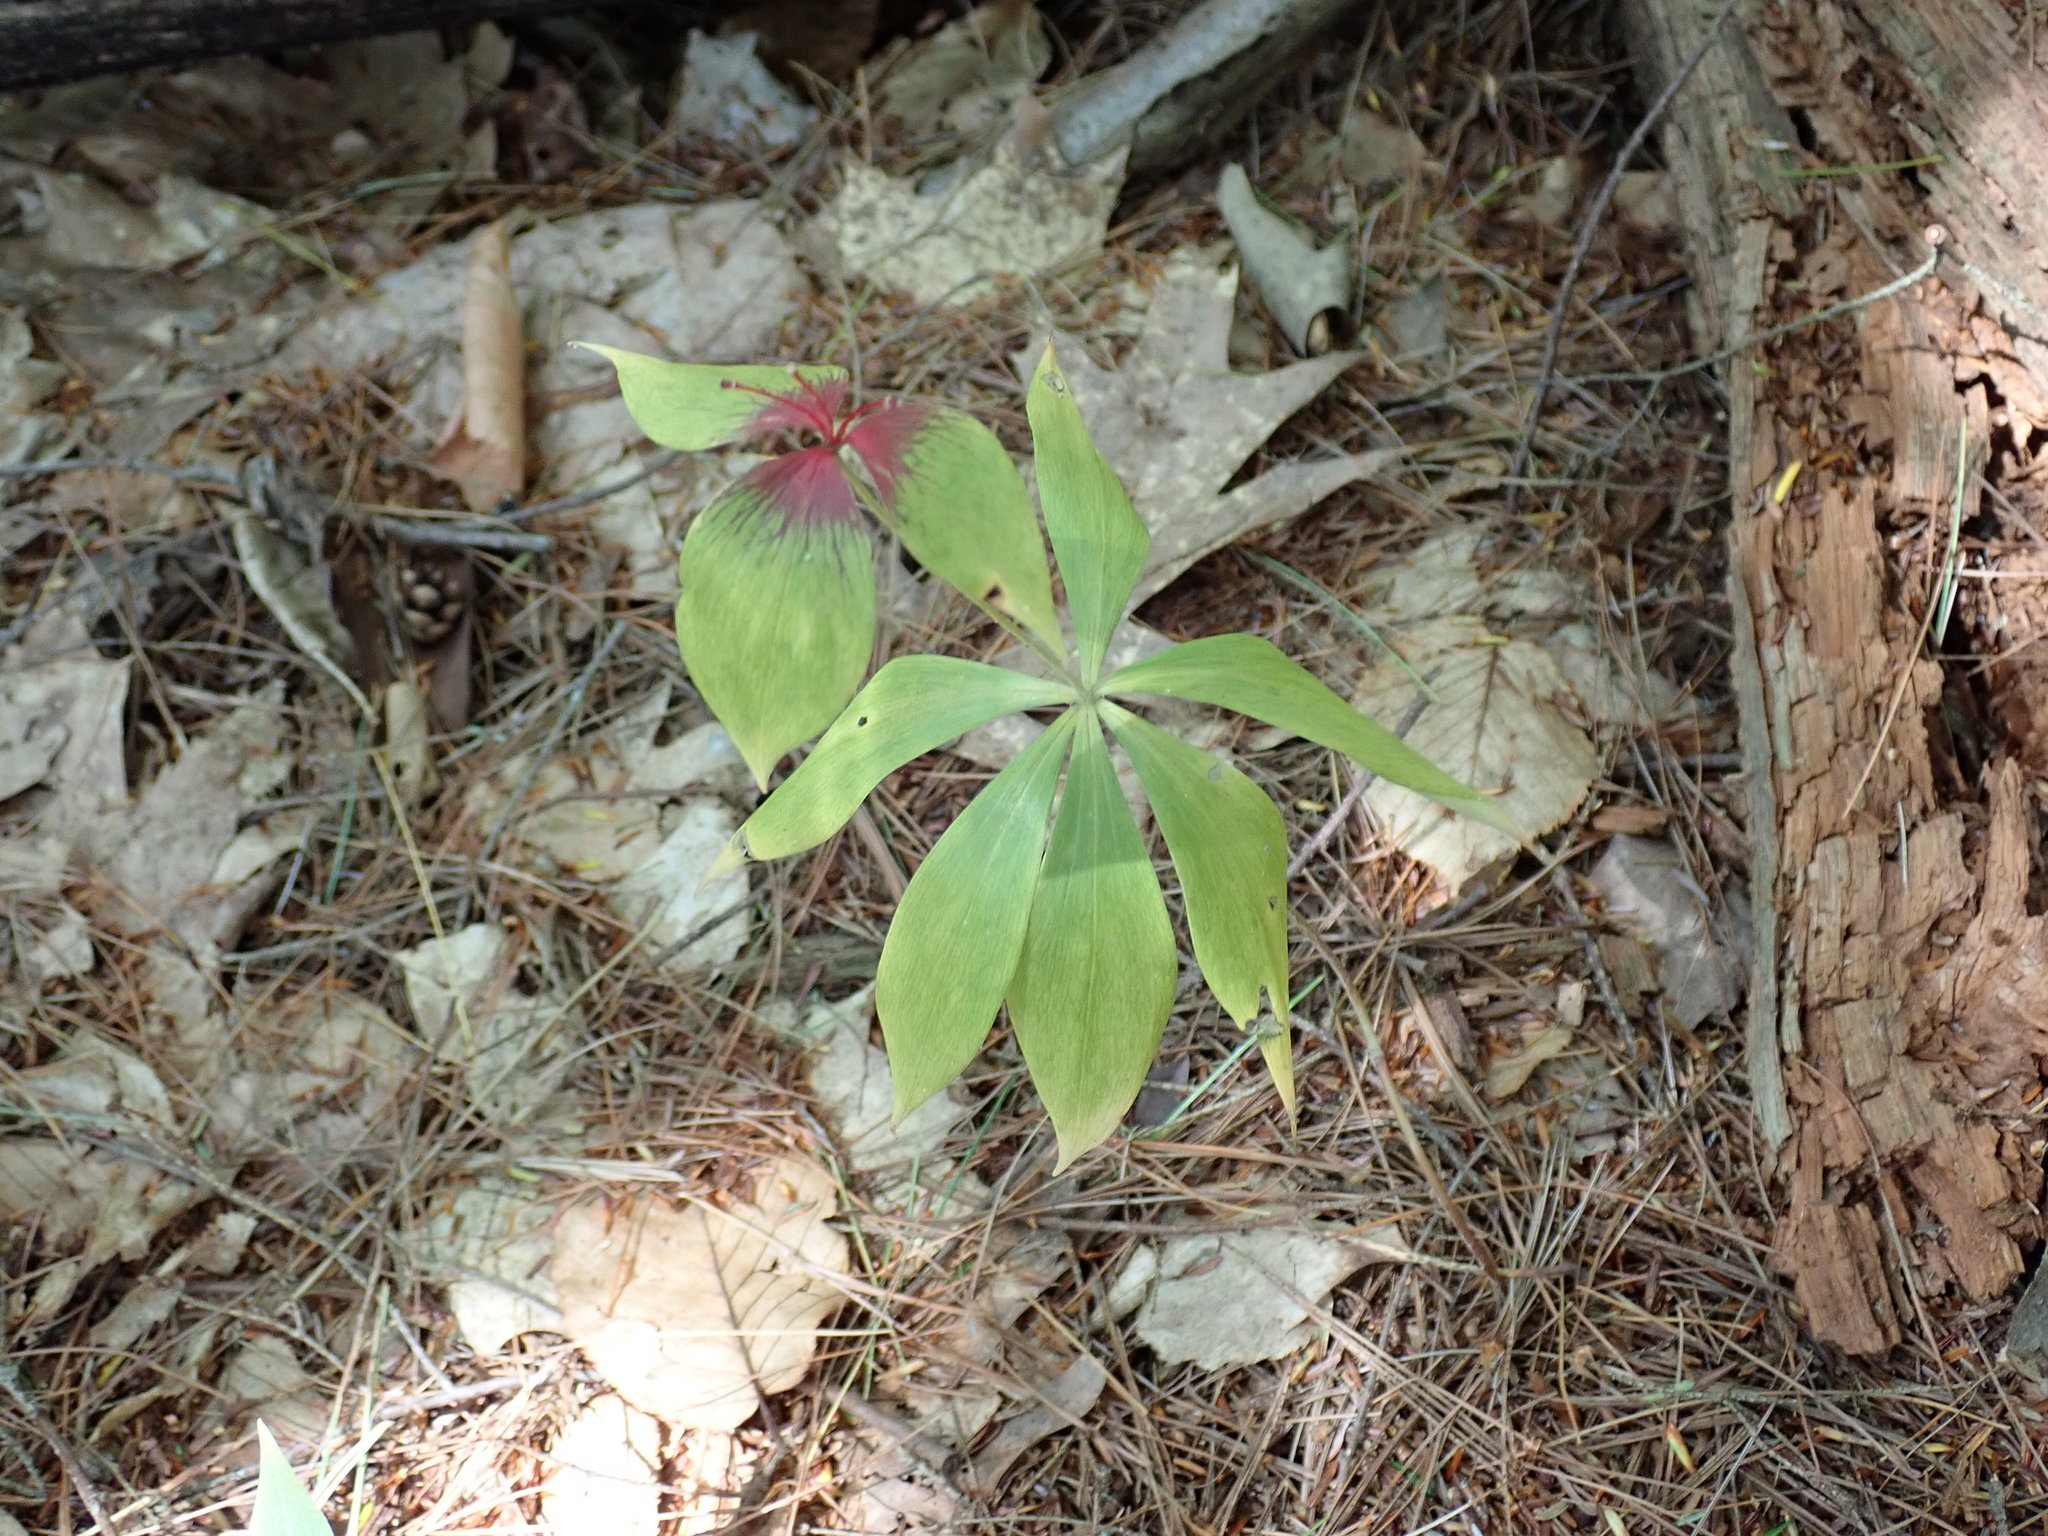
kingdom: Plantae
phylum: Tracheophyta
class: Liliopsida
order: Liliales
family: Liliaceae
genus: Medeola
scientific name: Medeola virginiana
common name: Indian cucumber-root
